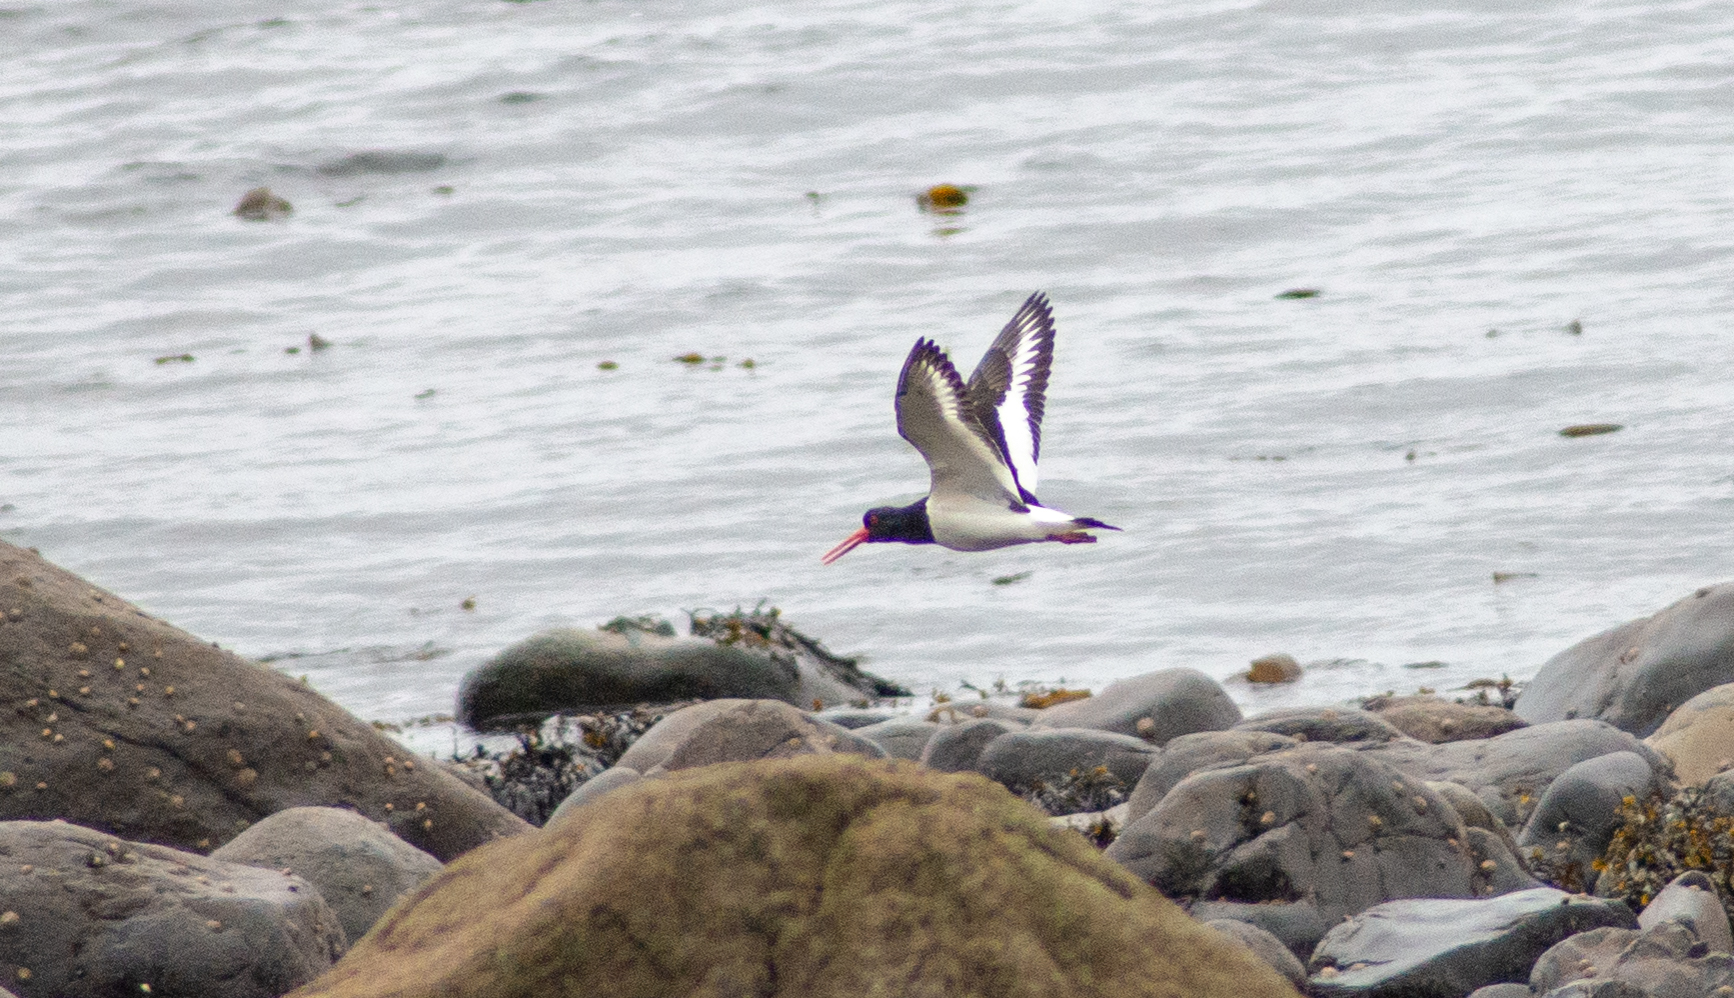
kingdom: Animalia
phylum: Chordata
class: Aves
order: Charadriiformes
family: Haematopodidae
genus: Haematopus
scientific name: Haematopus ostralegus
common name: Eurasian oystercatcher
